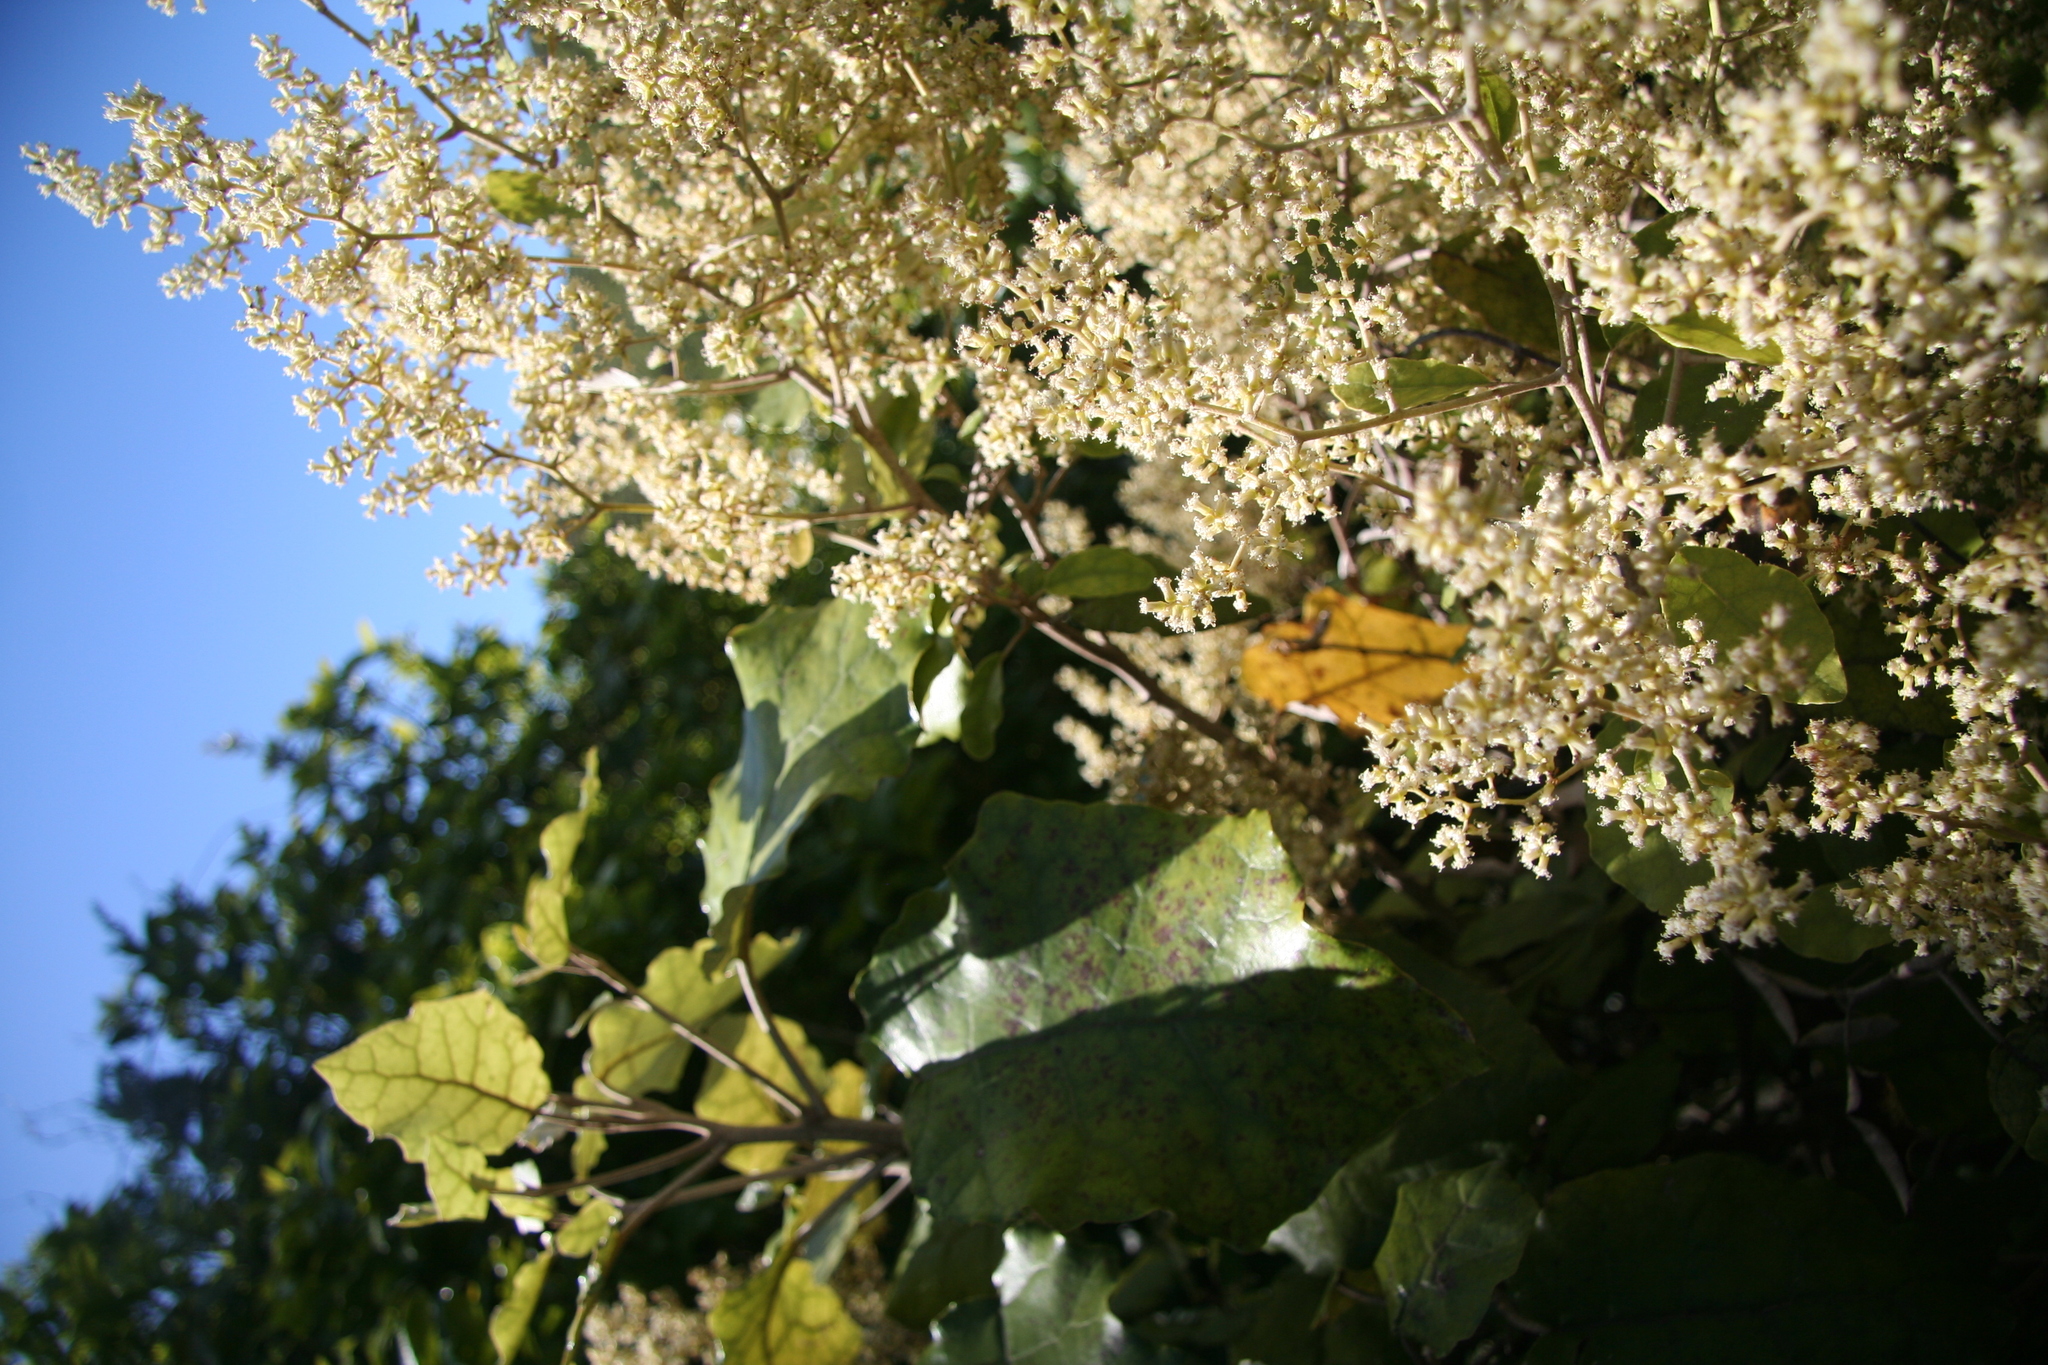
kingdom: Plantae
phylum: Tracheophyta
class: Magnoliopsida
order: Asterales
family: Asteraceae
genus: Brachyglottis
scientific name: Brachyglottis repanda
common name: Hedge ragwort
